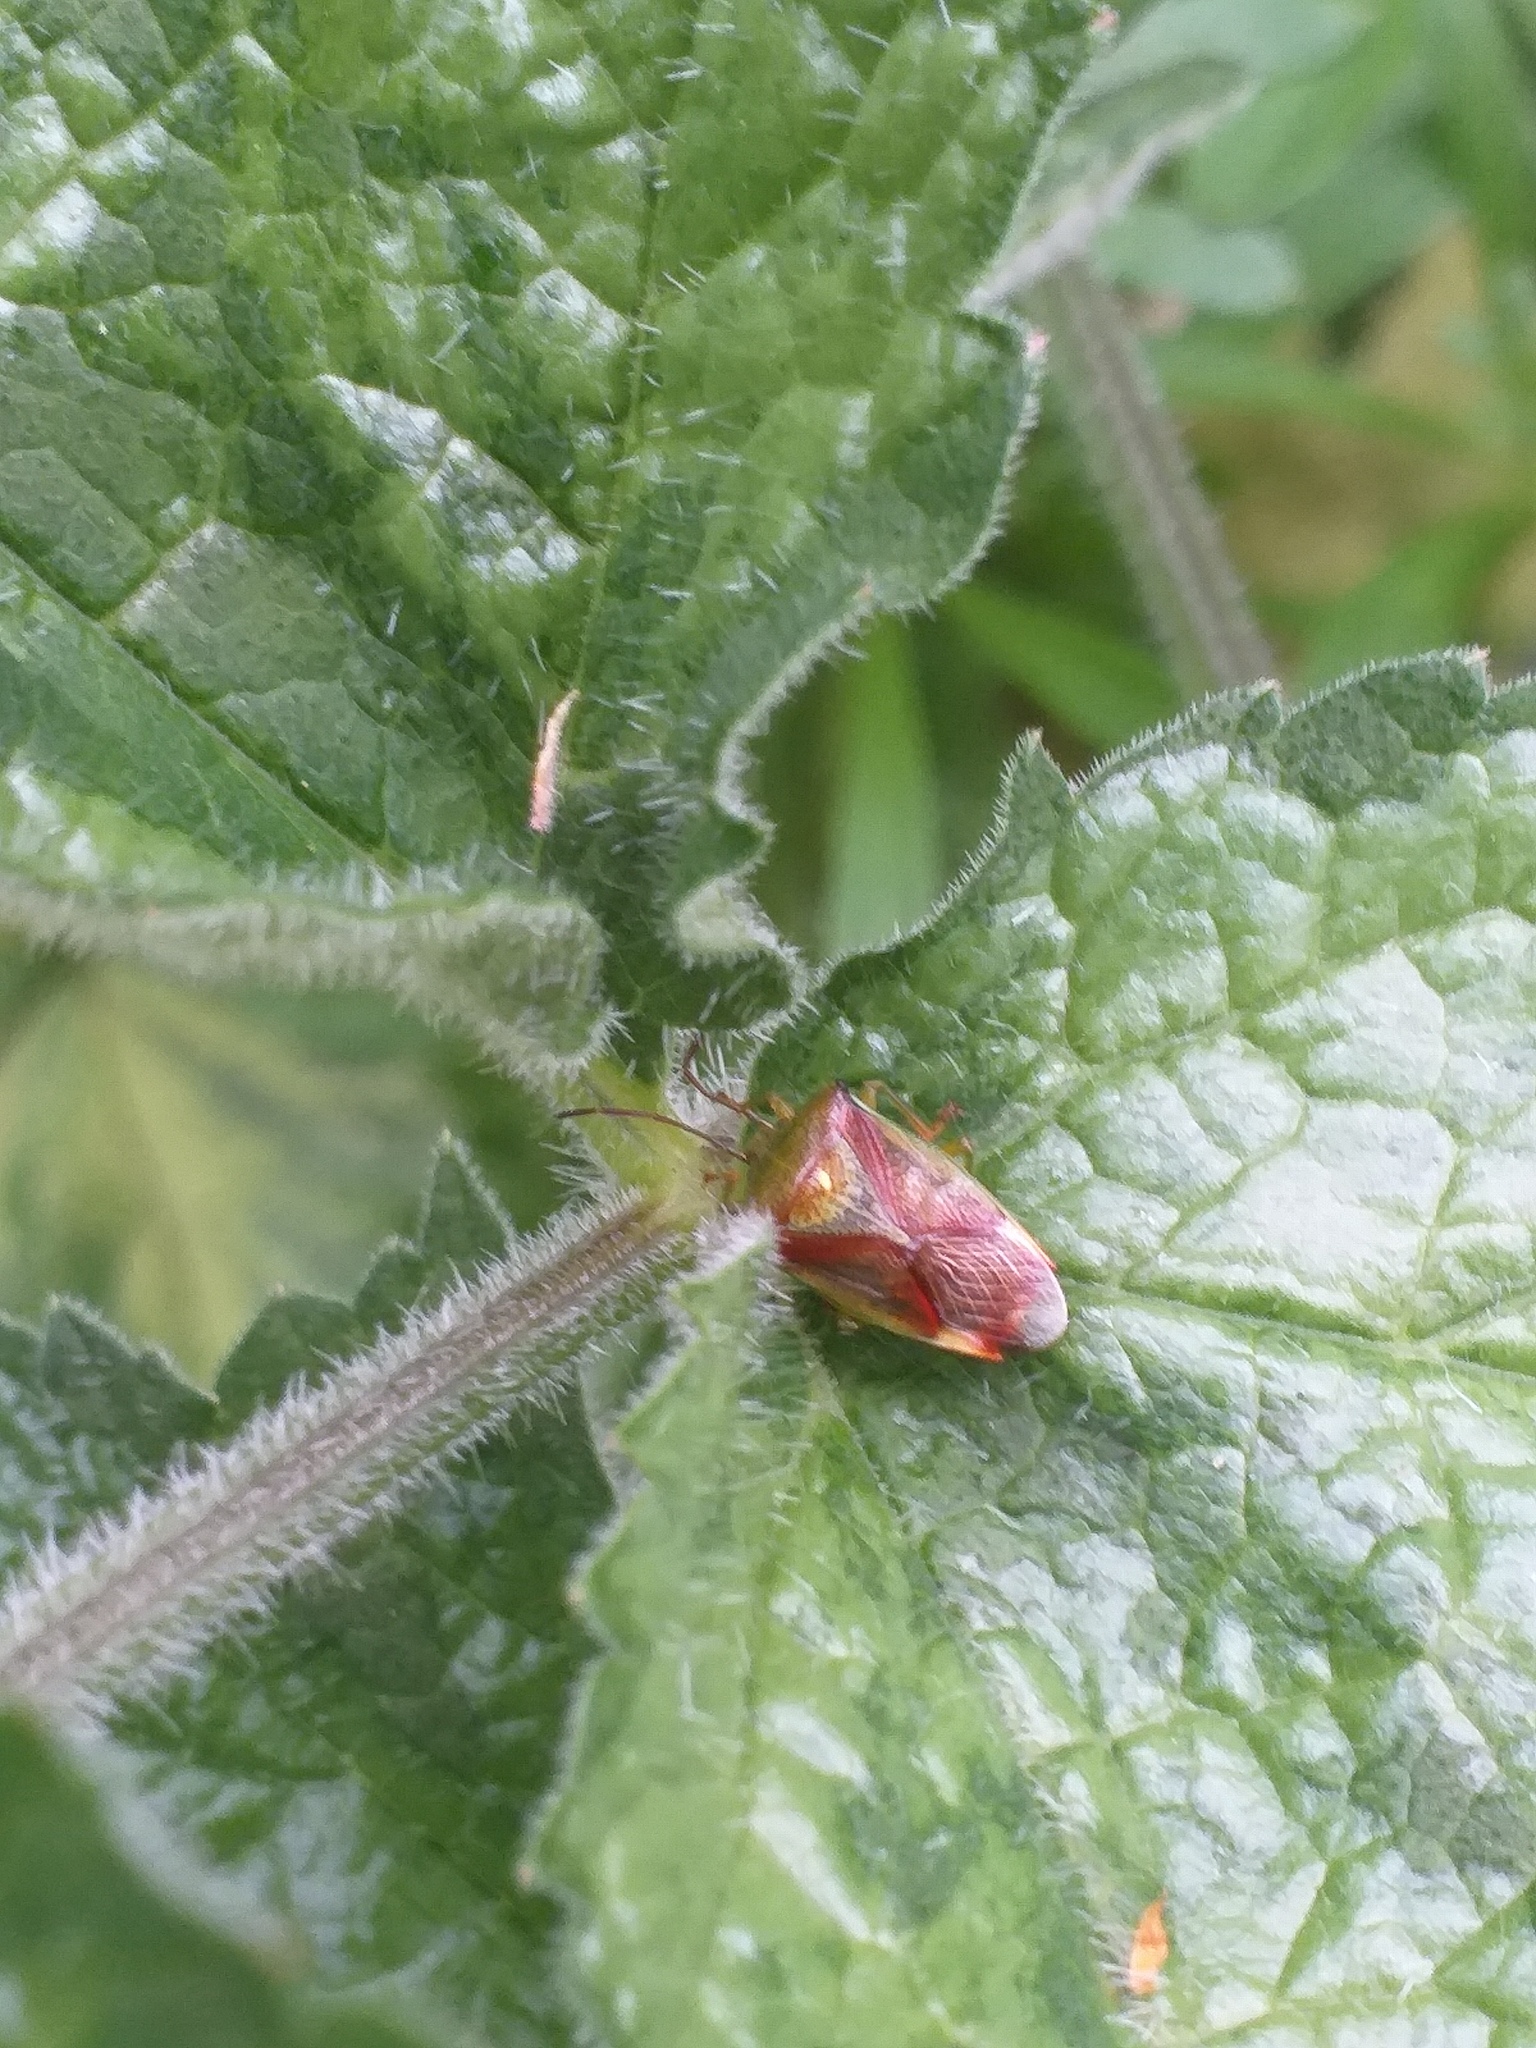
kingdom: Animalia
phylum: Arthropoda
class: Insecta
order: Hemiptera
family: Acanthosomatidae
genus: Elasmostethus
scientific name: Elasmostethus interstinctus
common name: Birch shieldbug
